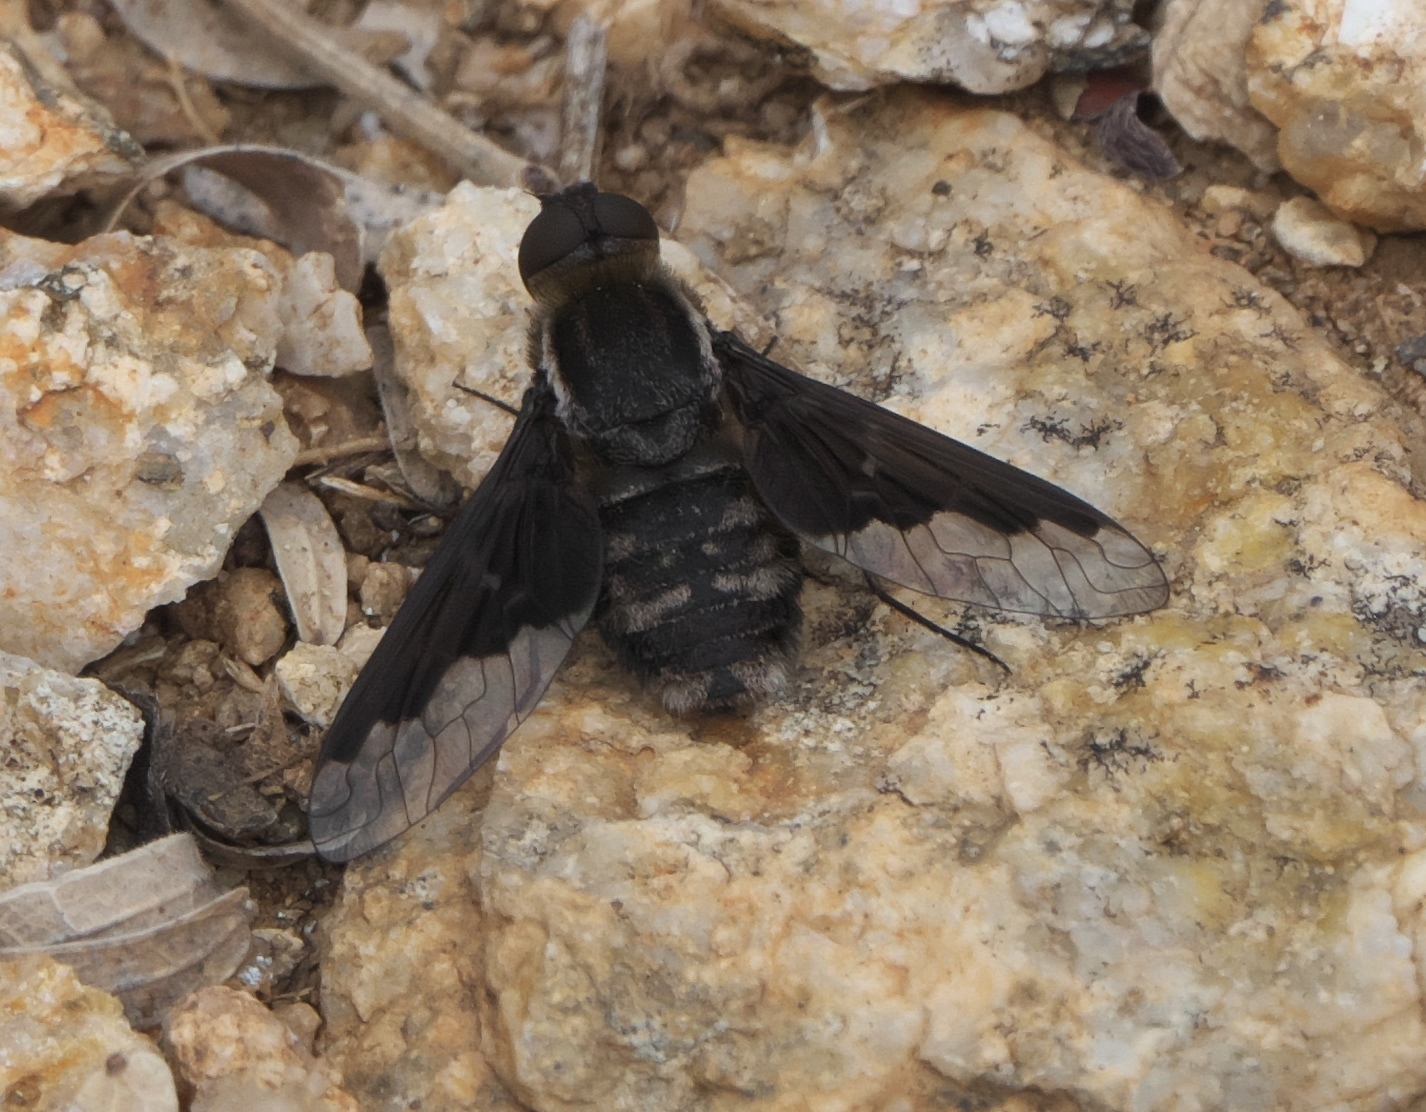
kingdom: Animalia
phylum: Arthropoda
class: Insecta
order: Diptera
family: Bombyliidae
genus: Hemipenthes
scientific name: Hemipenthes seminiger
